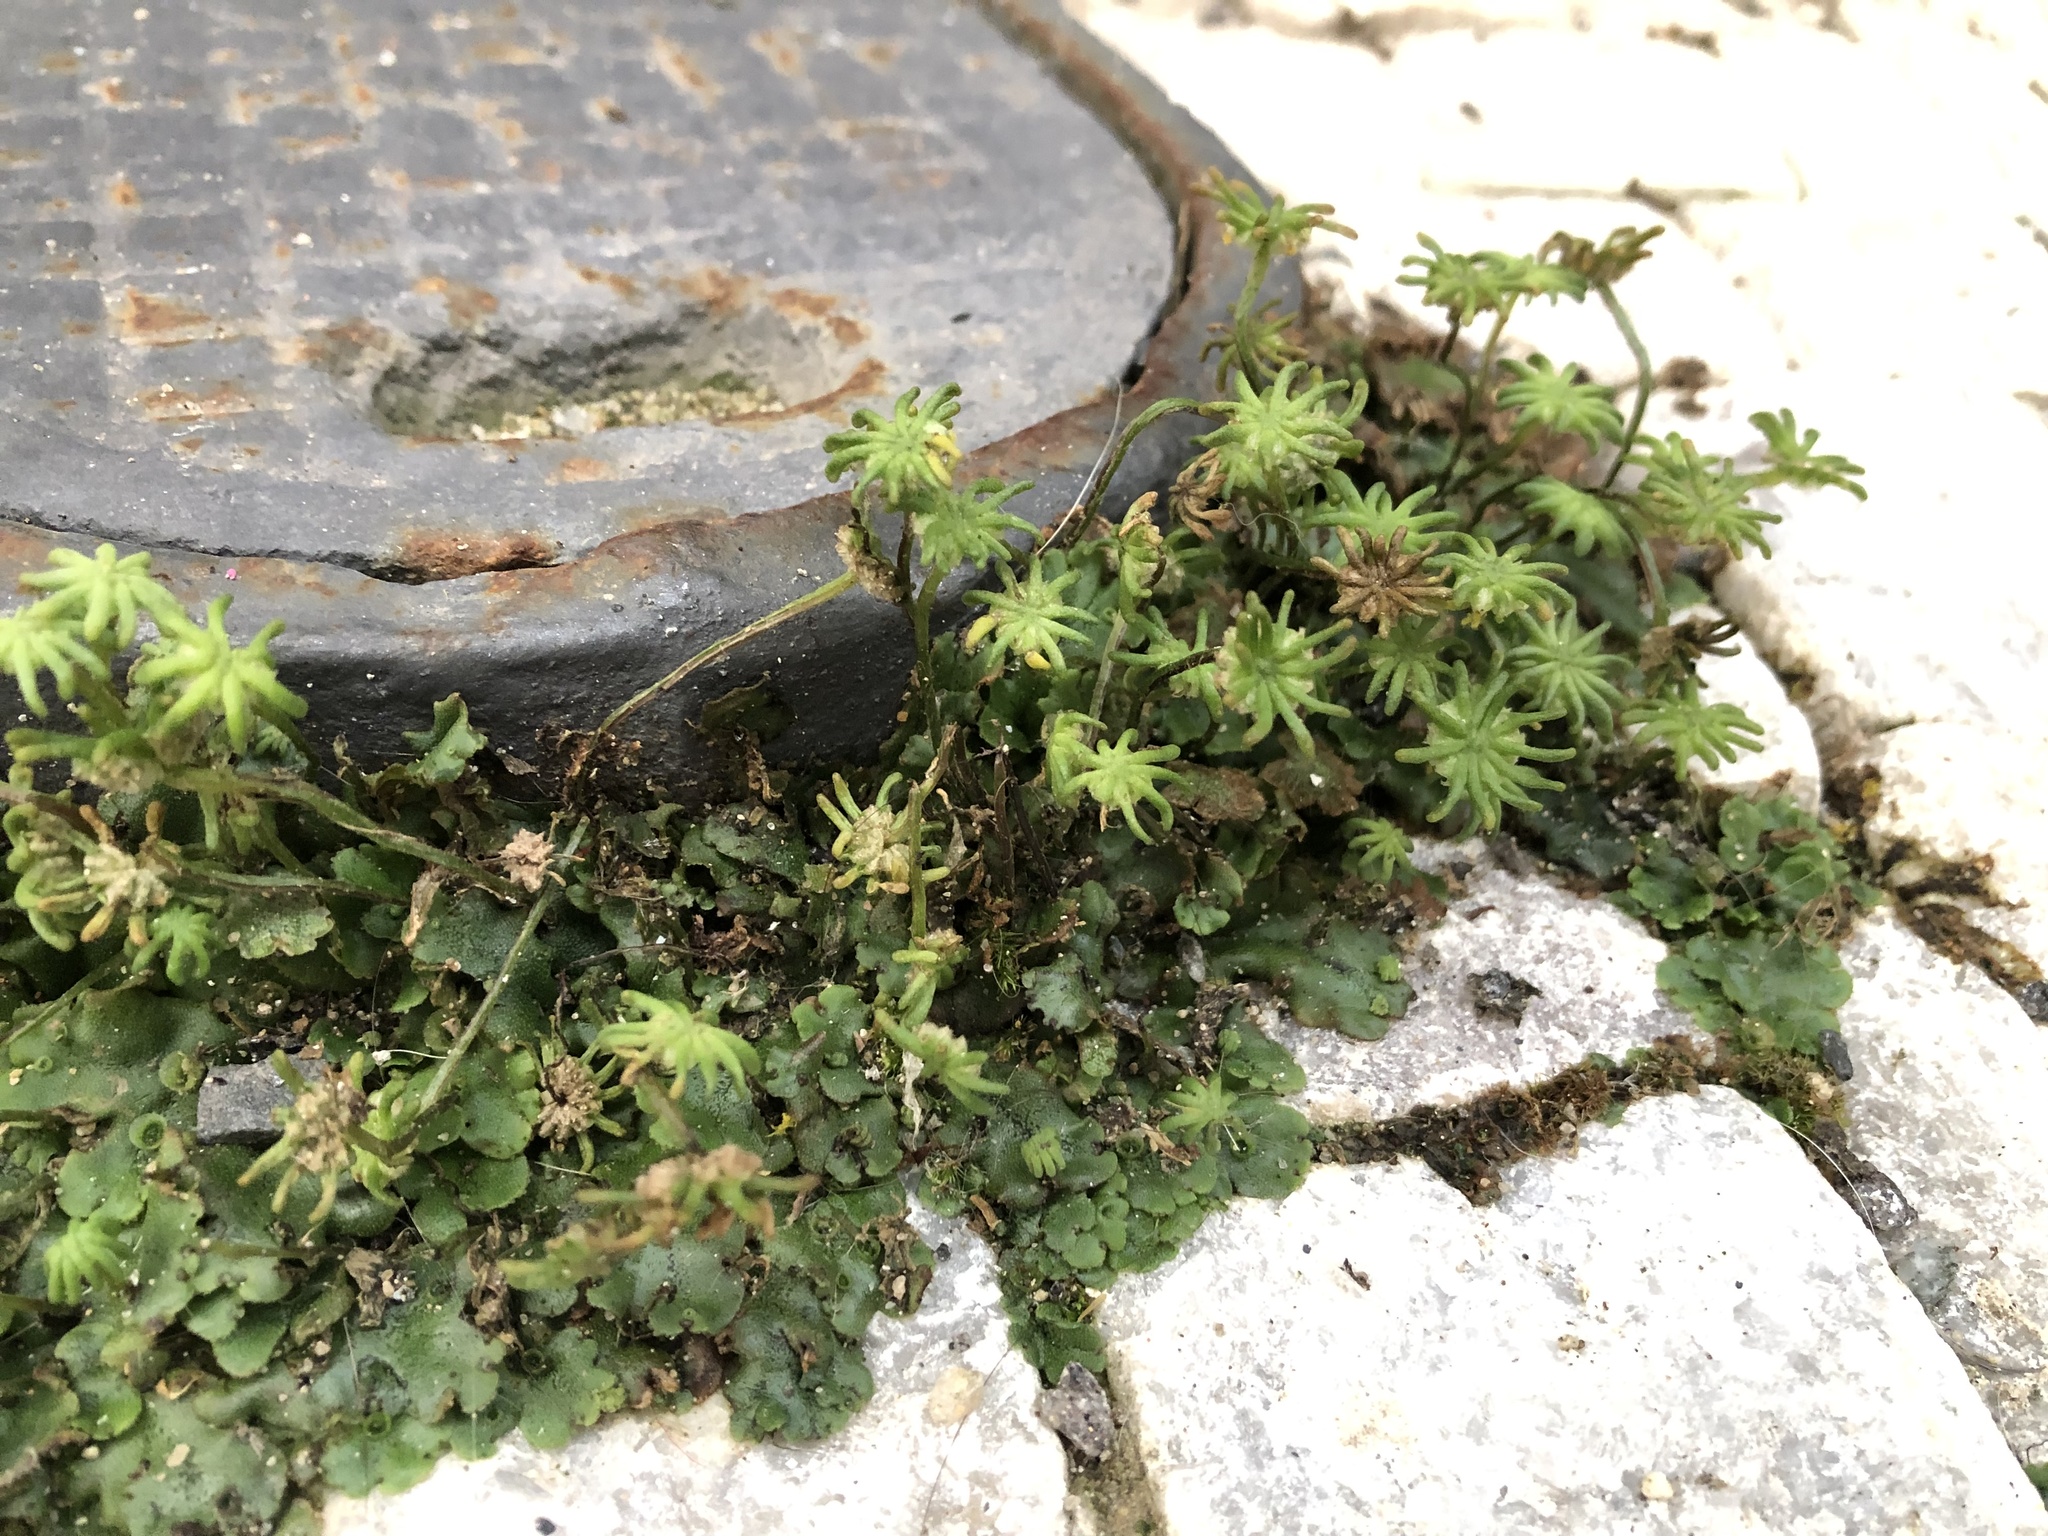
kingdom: Plantae
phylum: Marchantiophyta
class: Marchantiopsida
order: Marchantiales
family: Marchantiaceae
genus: Marchantia
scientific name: Marchantia polymorpha
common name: Common liverwort
